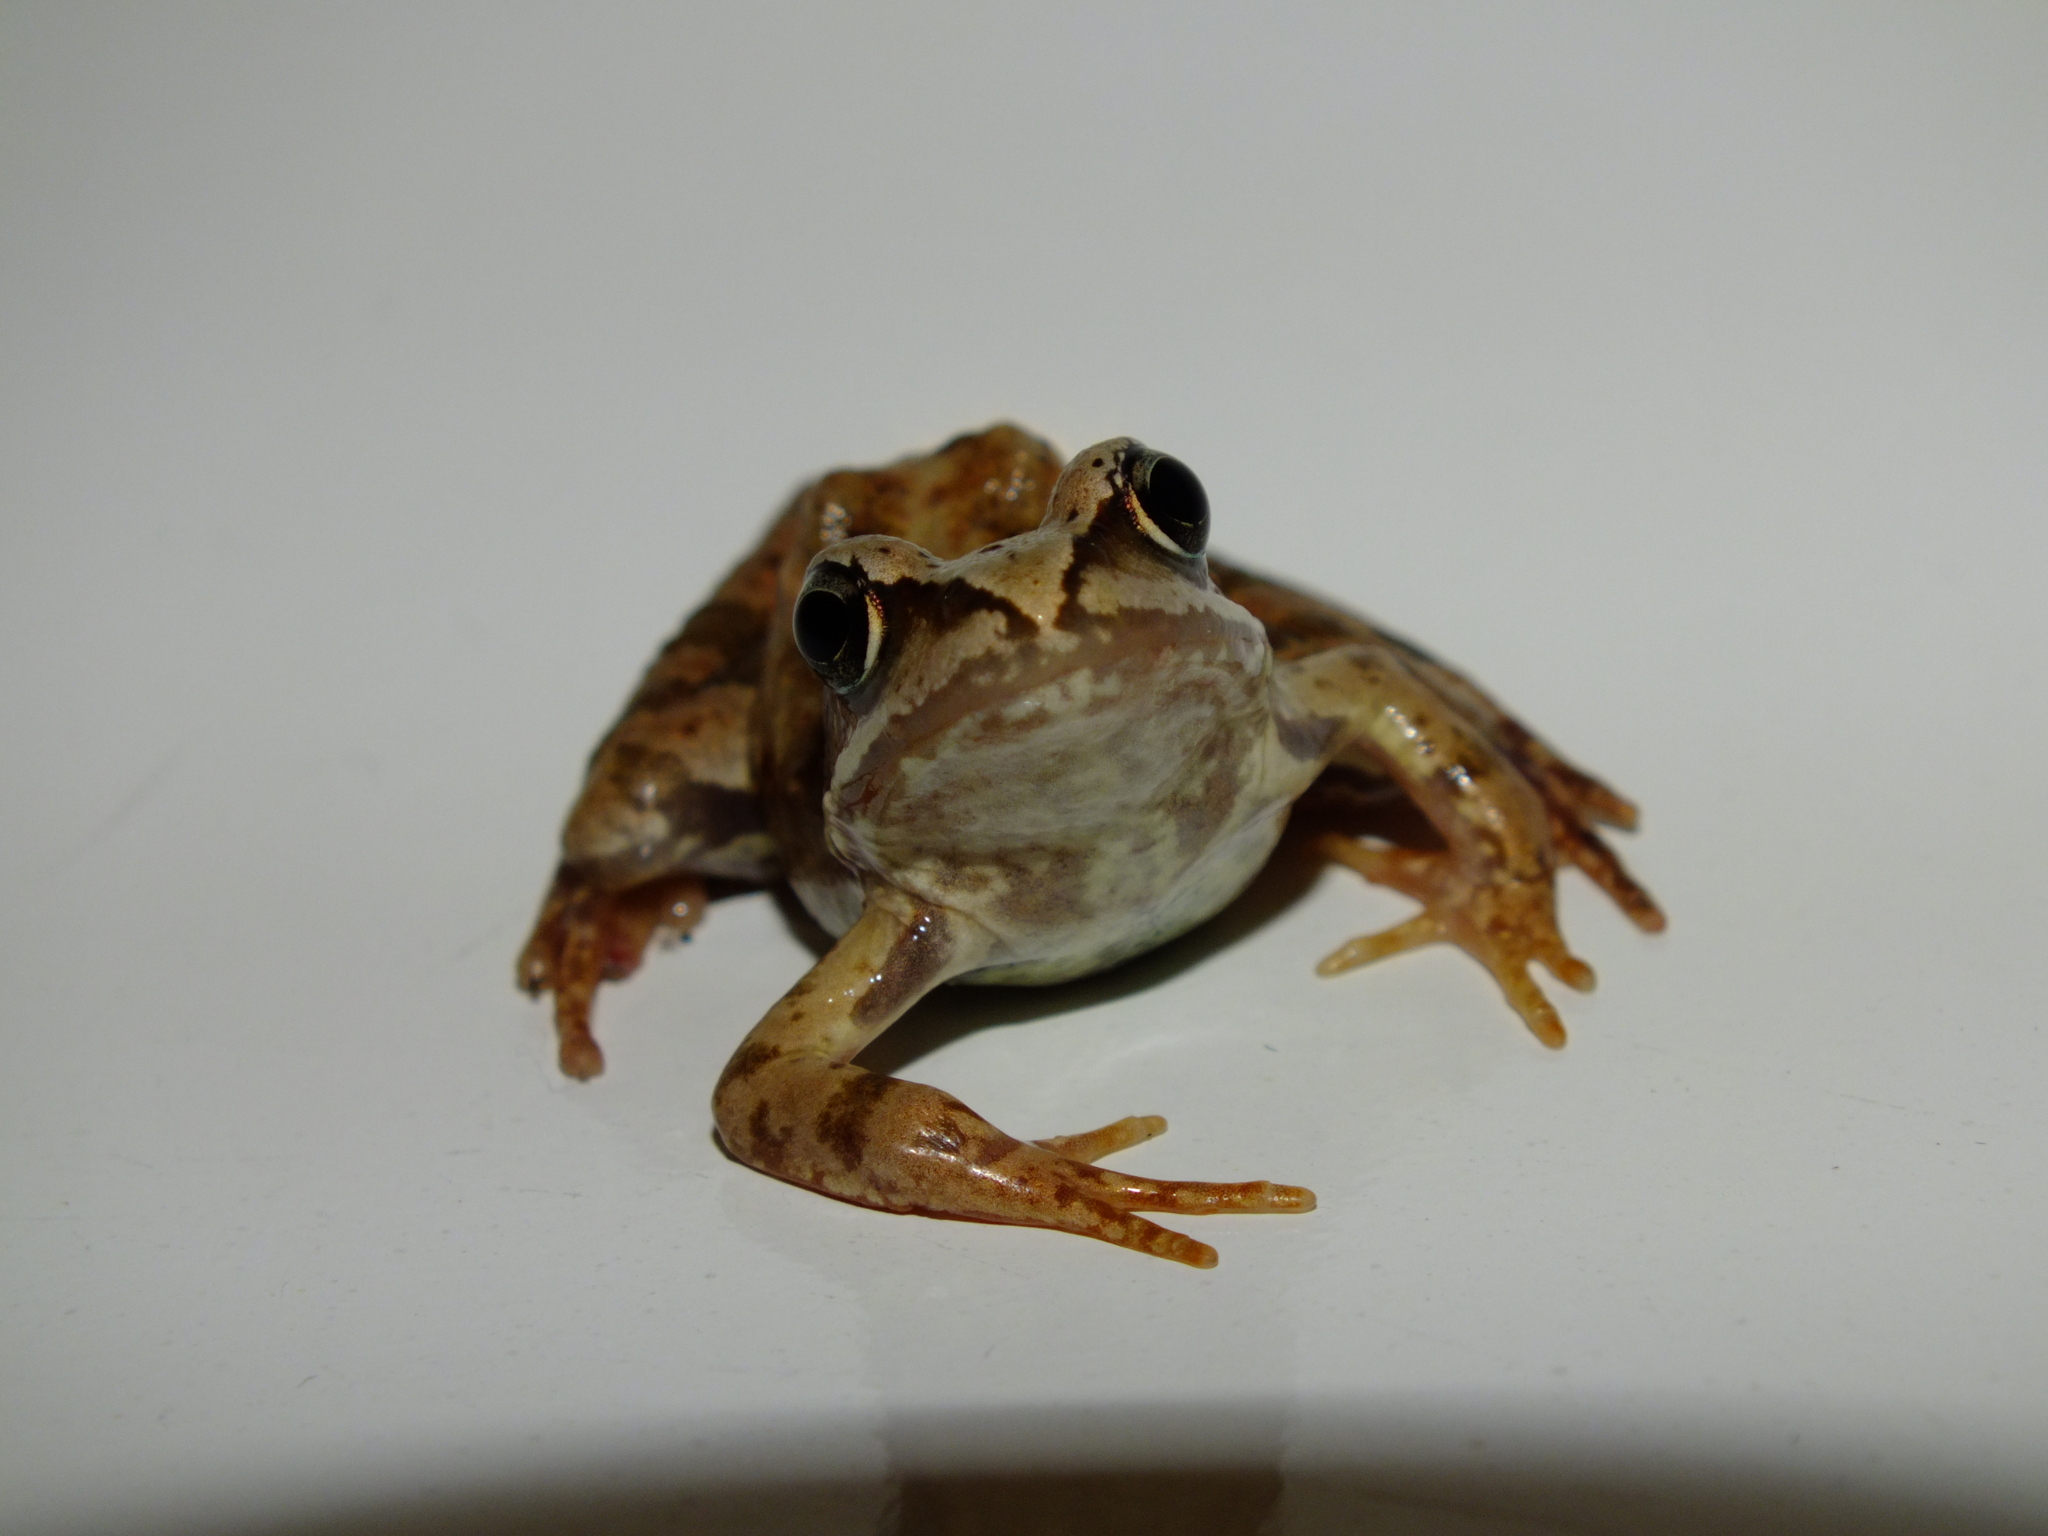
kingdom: Animalia
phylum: Chordata
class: Amphibia
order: Anura
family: Ranidae
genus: Rana
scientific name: Rana temporaria
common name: Common frog
